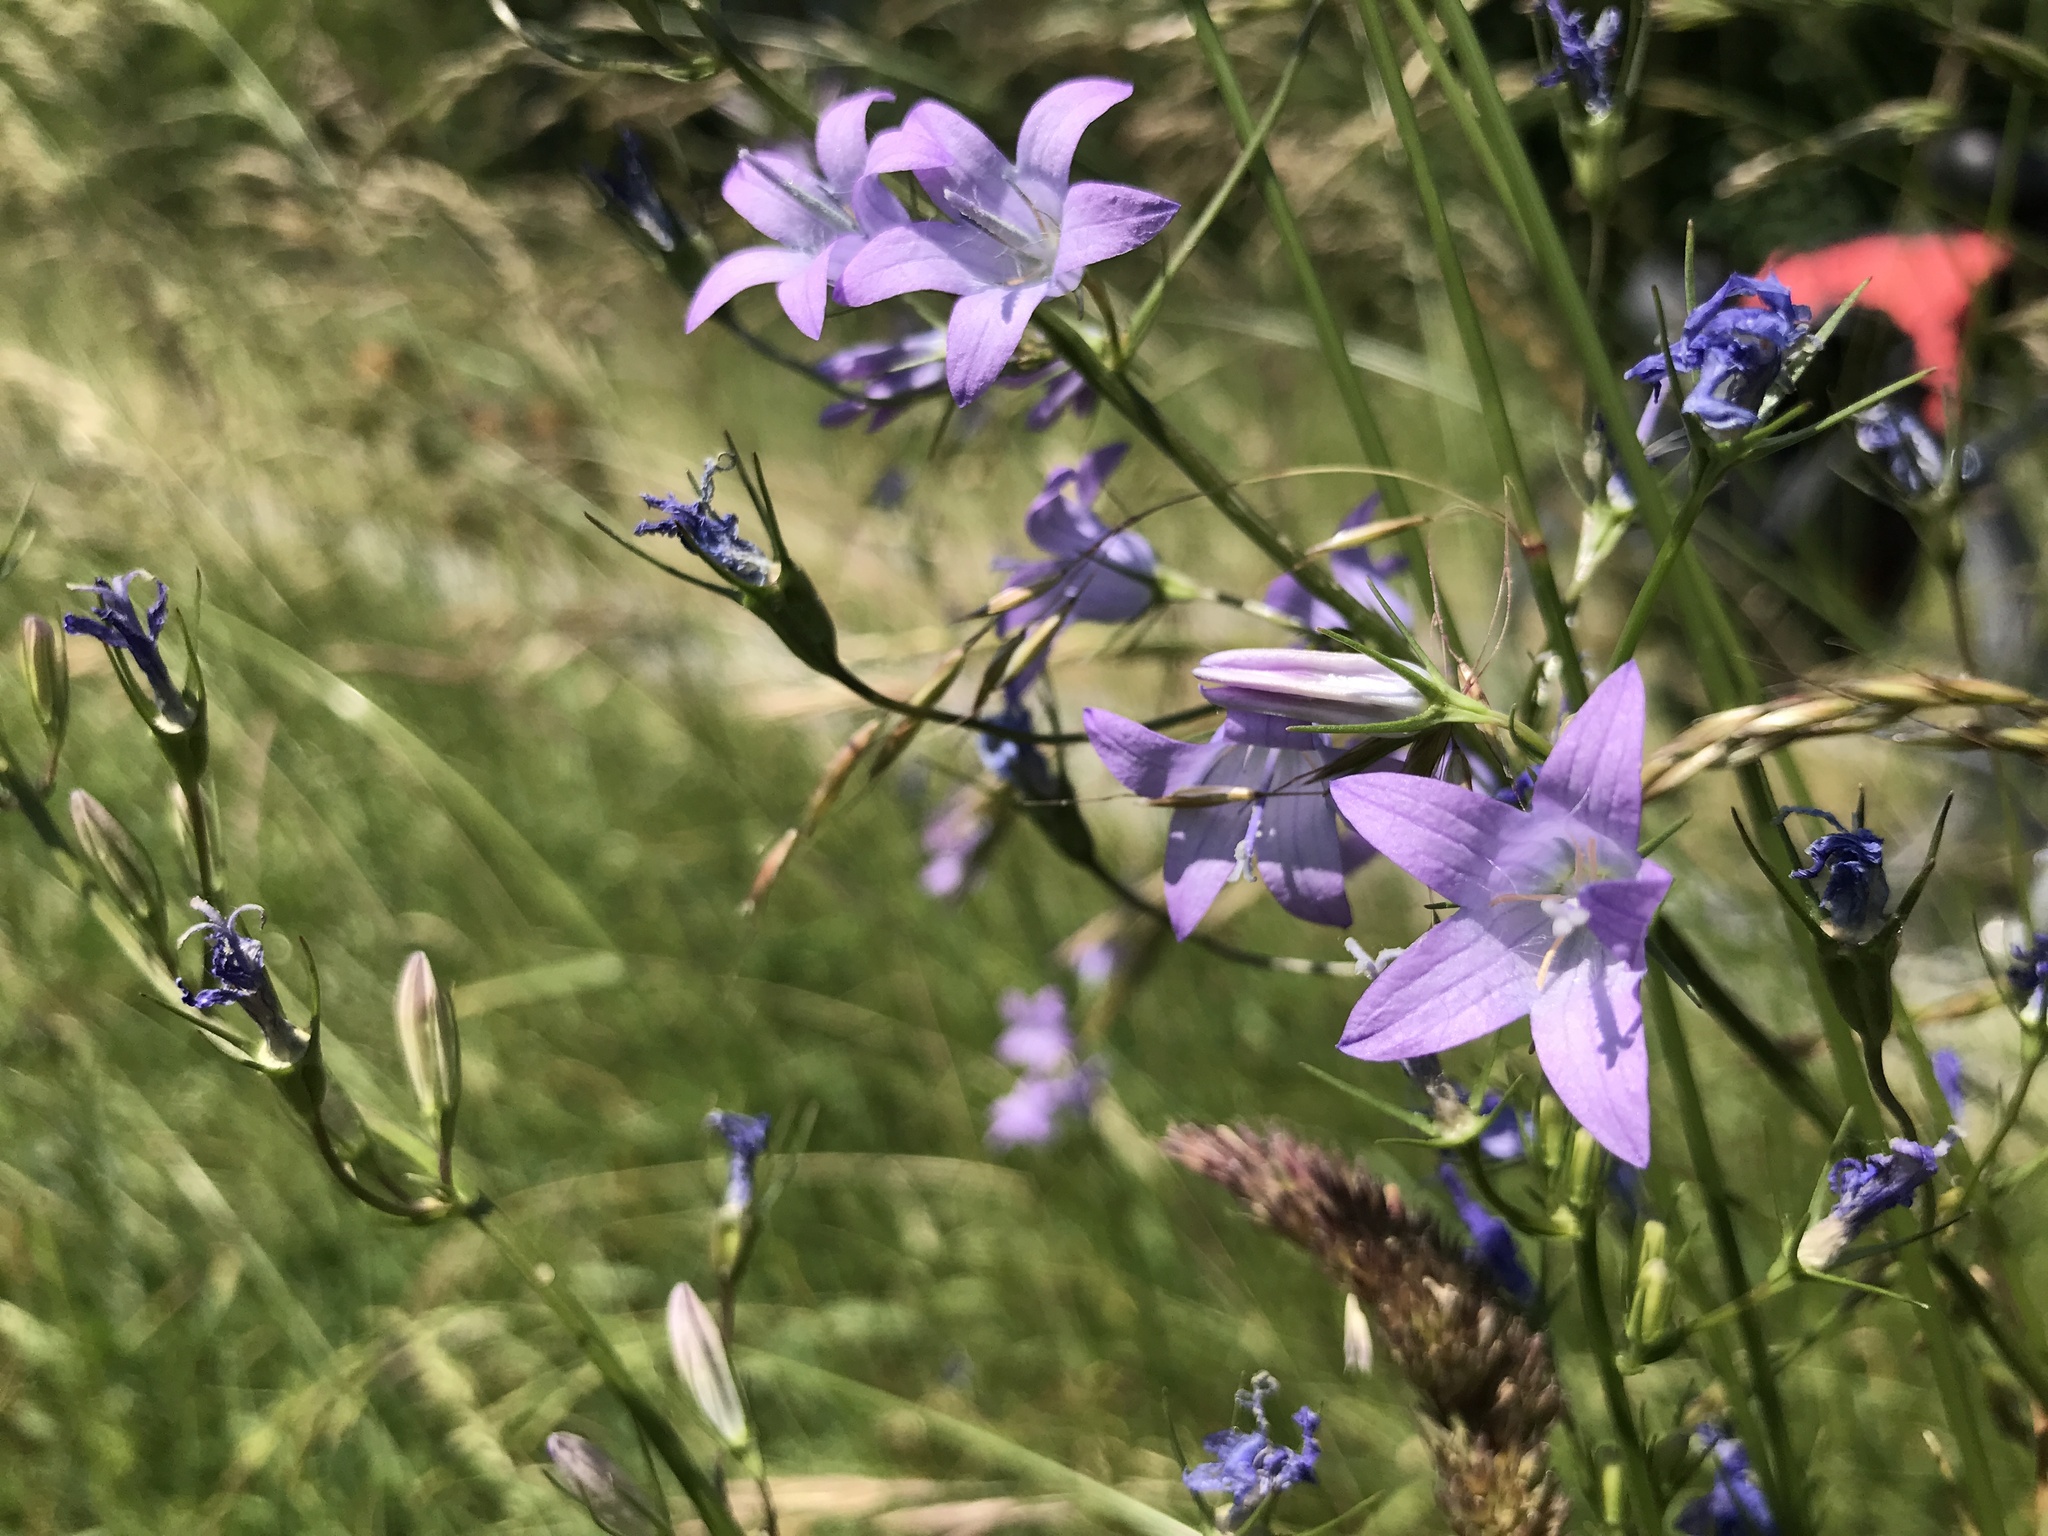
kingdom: Plantae
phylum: Tracheophyta
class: Magnoliopsida
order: Asterales
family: Campanulaceae
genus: Campanula
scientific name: Campanula rapunculus
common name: Rampion bellflower
